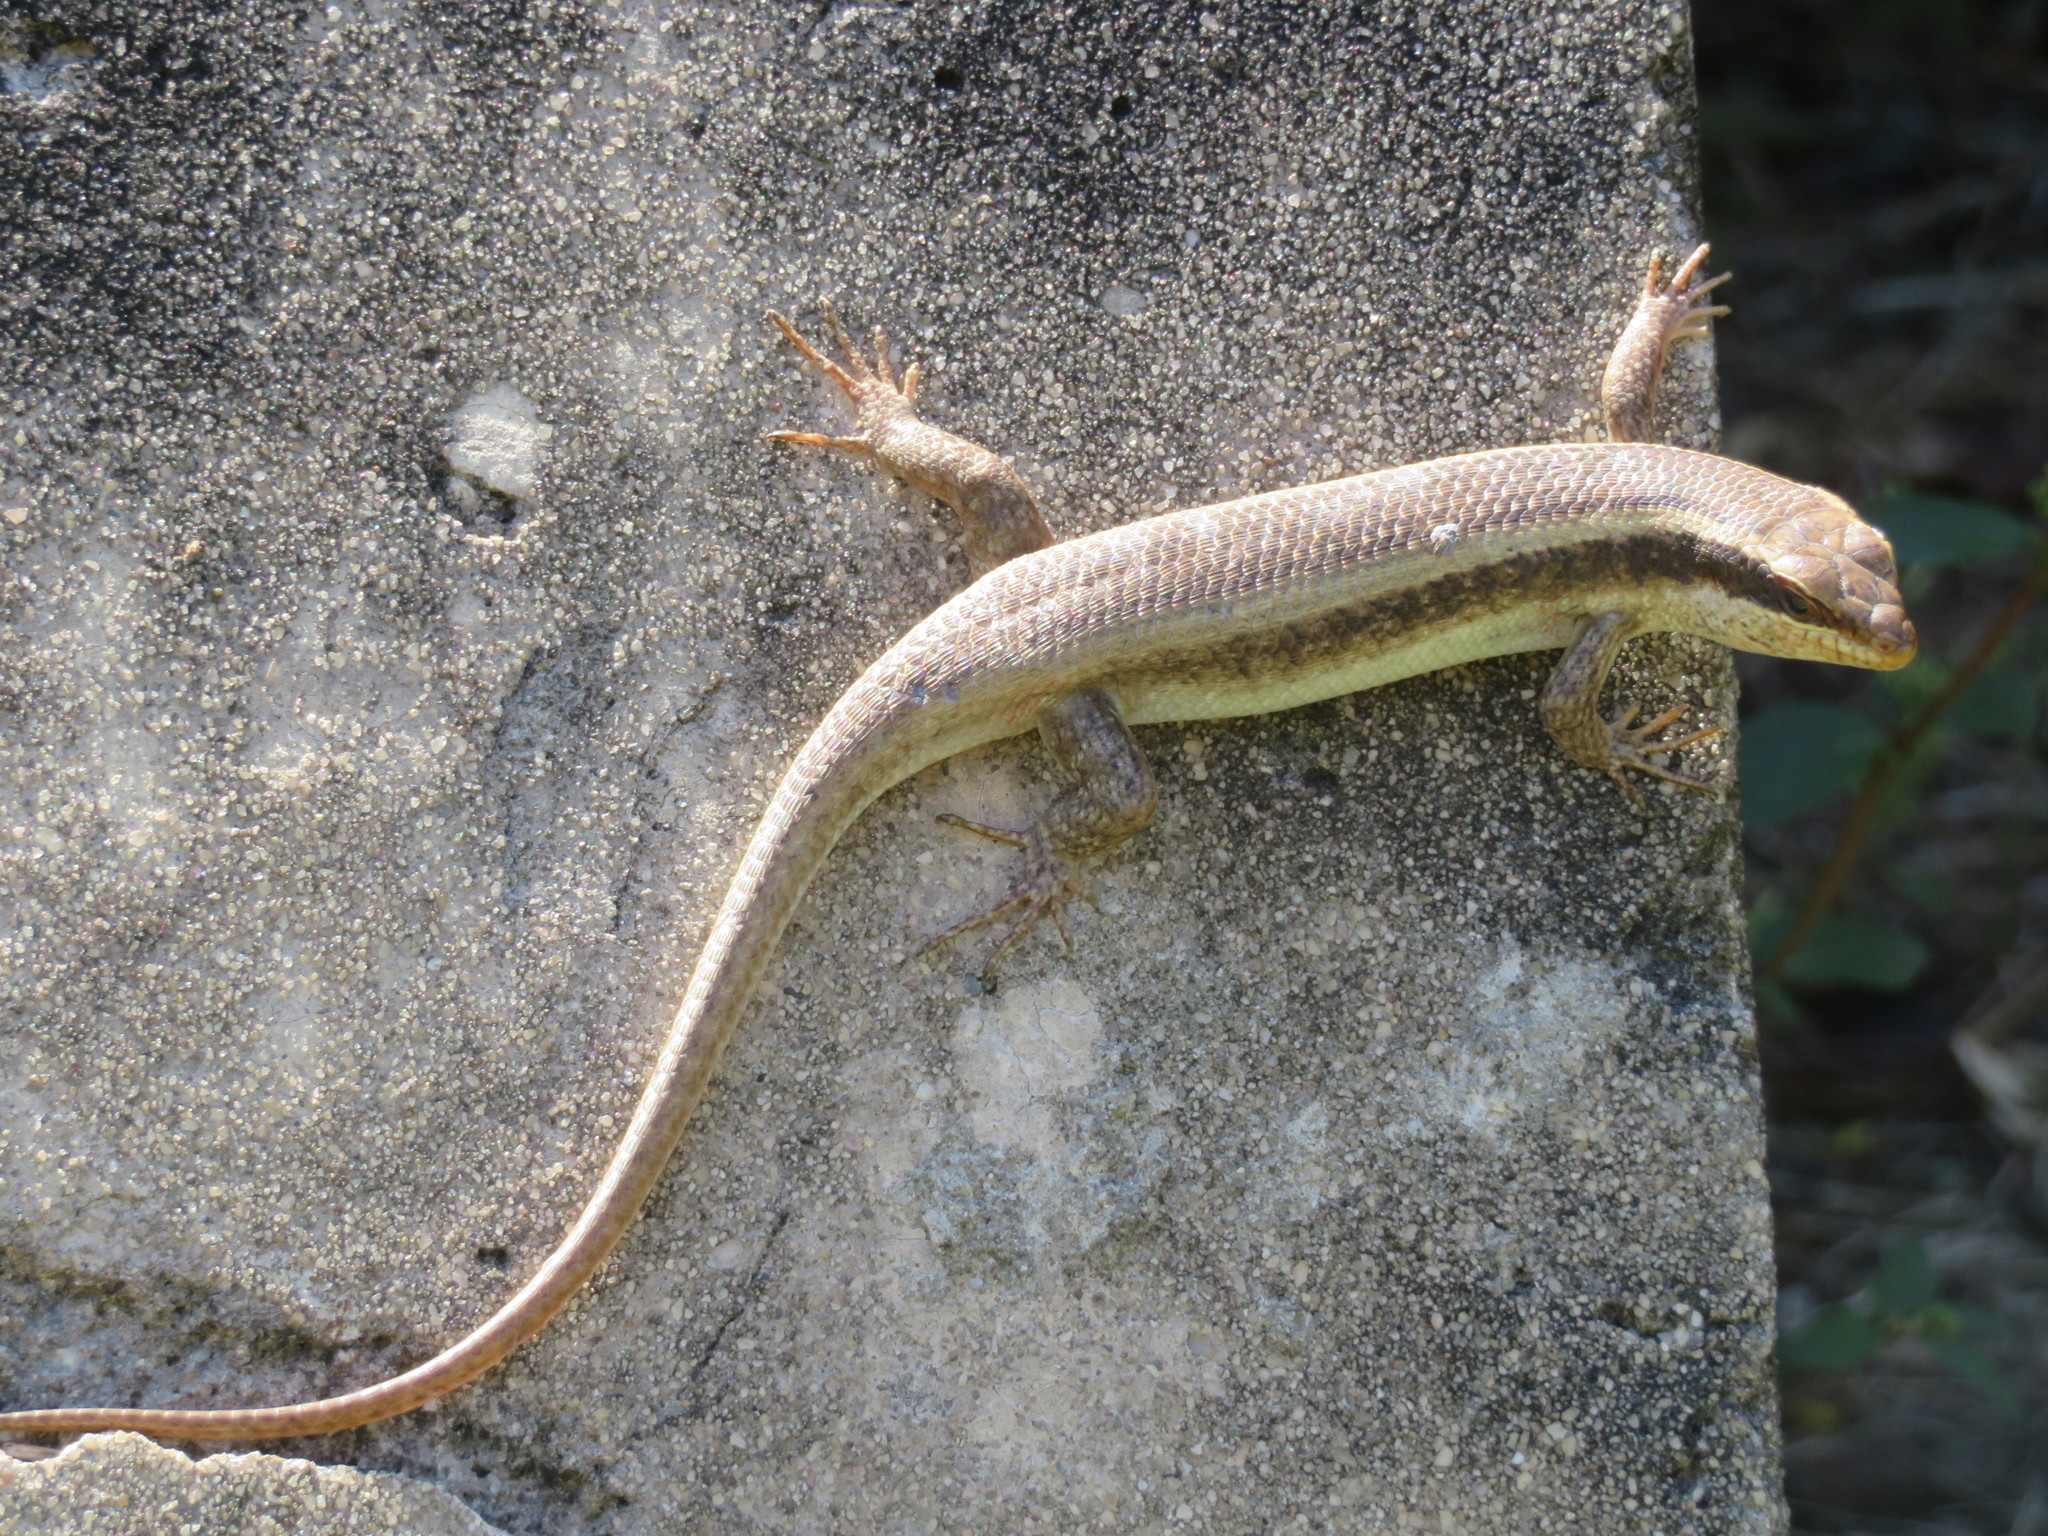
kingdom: Animalia
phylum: Chordata
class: Squamata
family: Scincidae
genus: Trachylepis
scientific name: Trachylepis striata
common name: African striped mabuya
